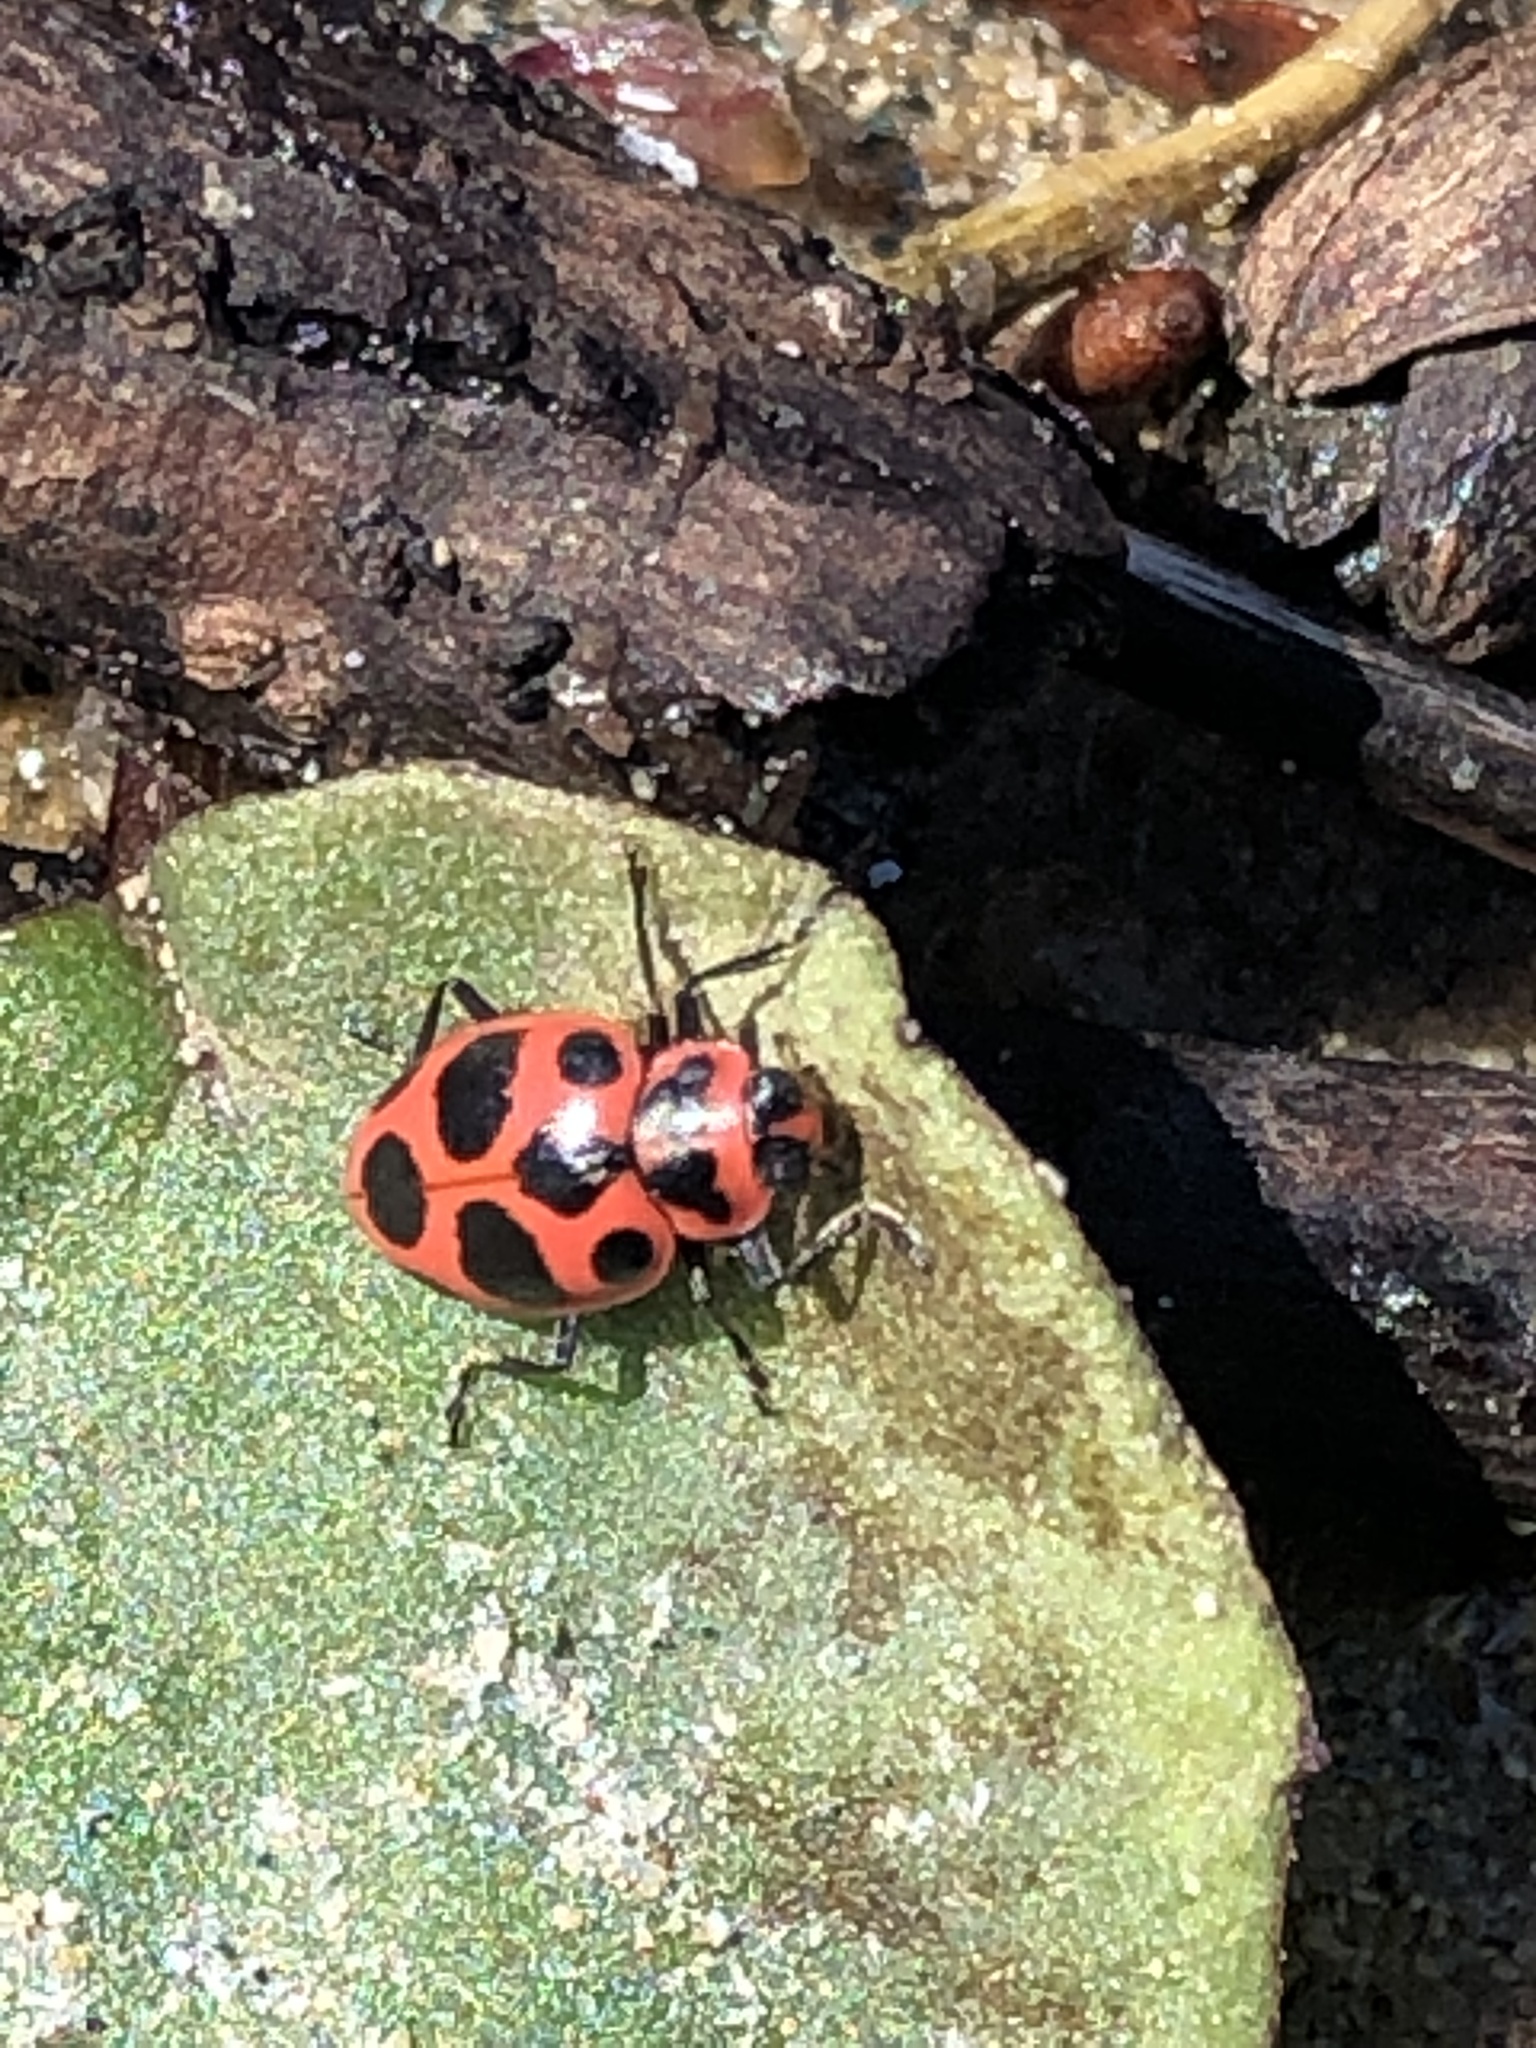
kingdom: Animalia
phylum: Arthropoda
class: Insecta
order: Coleoptera
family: Coccinellidae
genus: Coleomegilla
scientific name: Coleomegilla maculata
